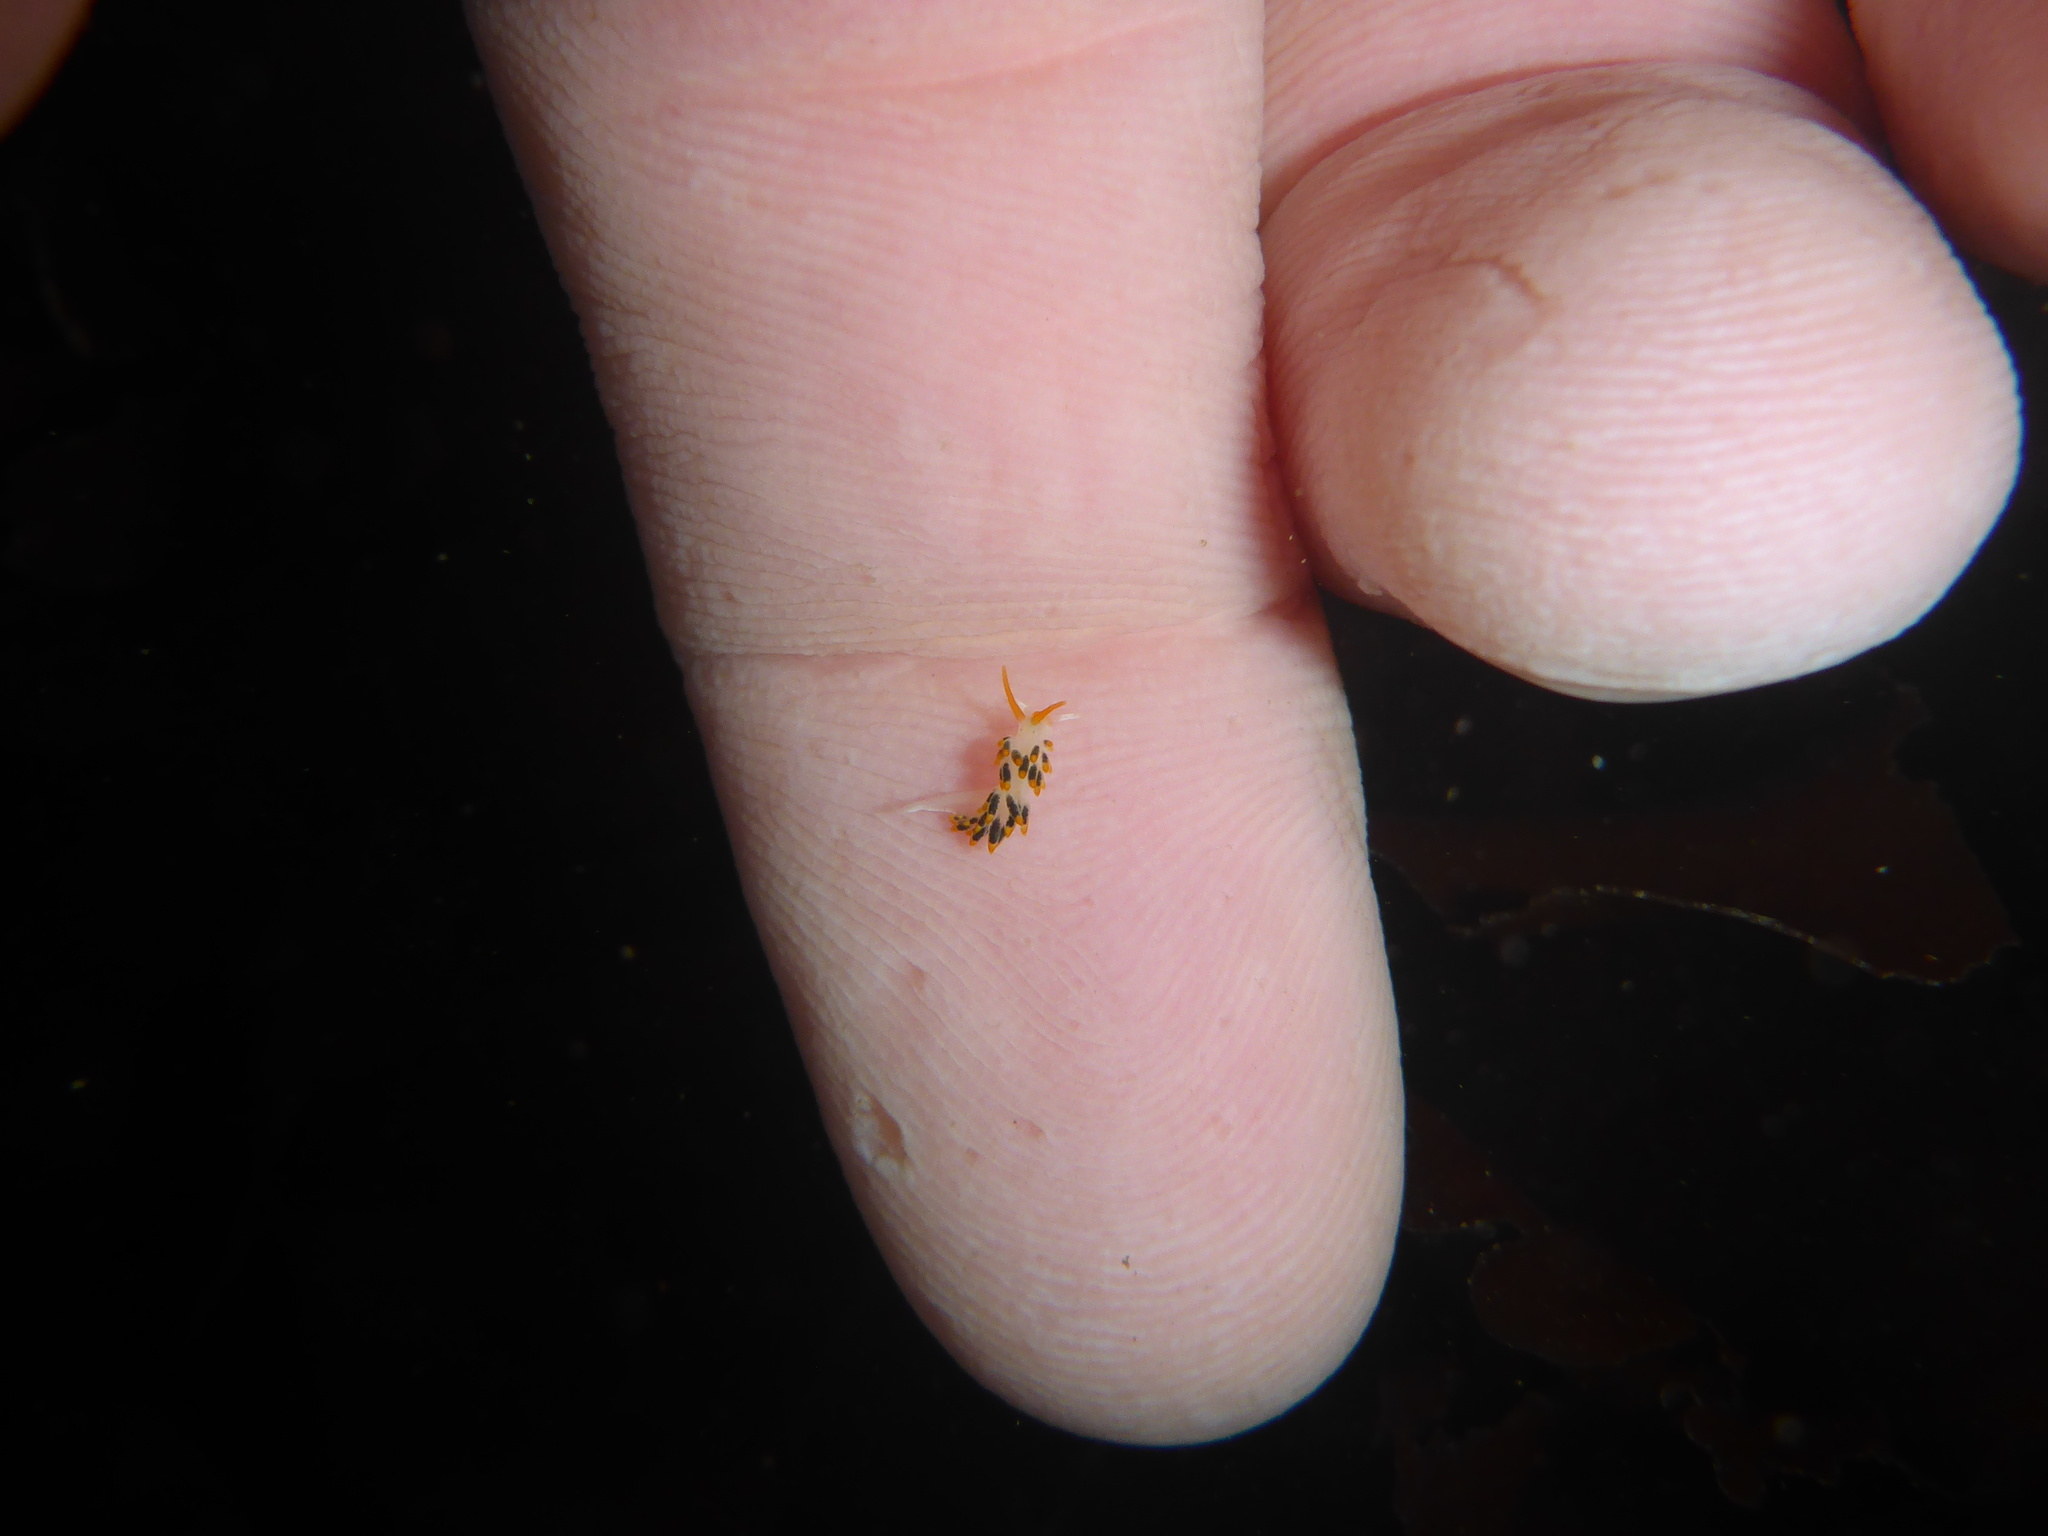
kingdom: Animalia
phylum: Mollusca
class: Gastropoda
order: Nudibranchia
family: Trinchesiidae
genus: Diaphoreolis
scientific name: Diaphoreolis lagunae
